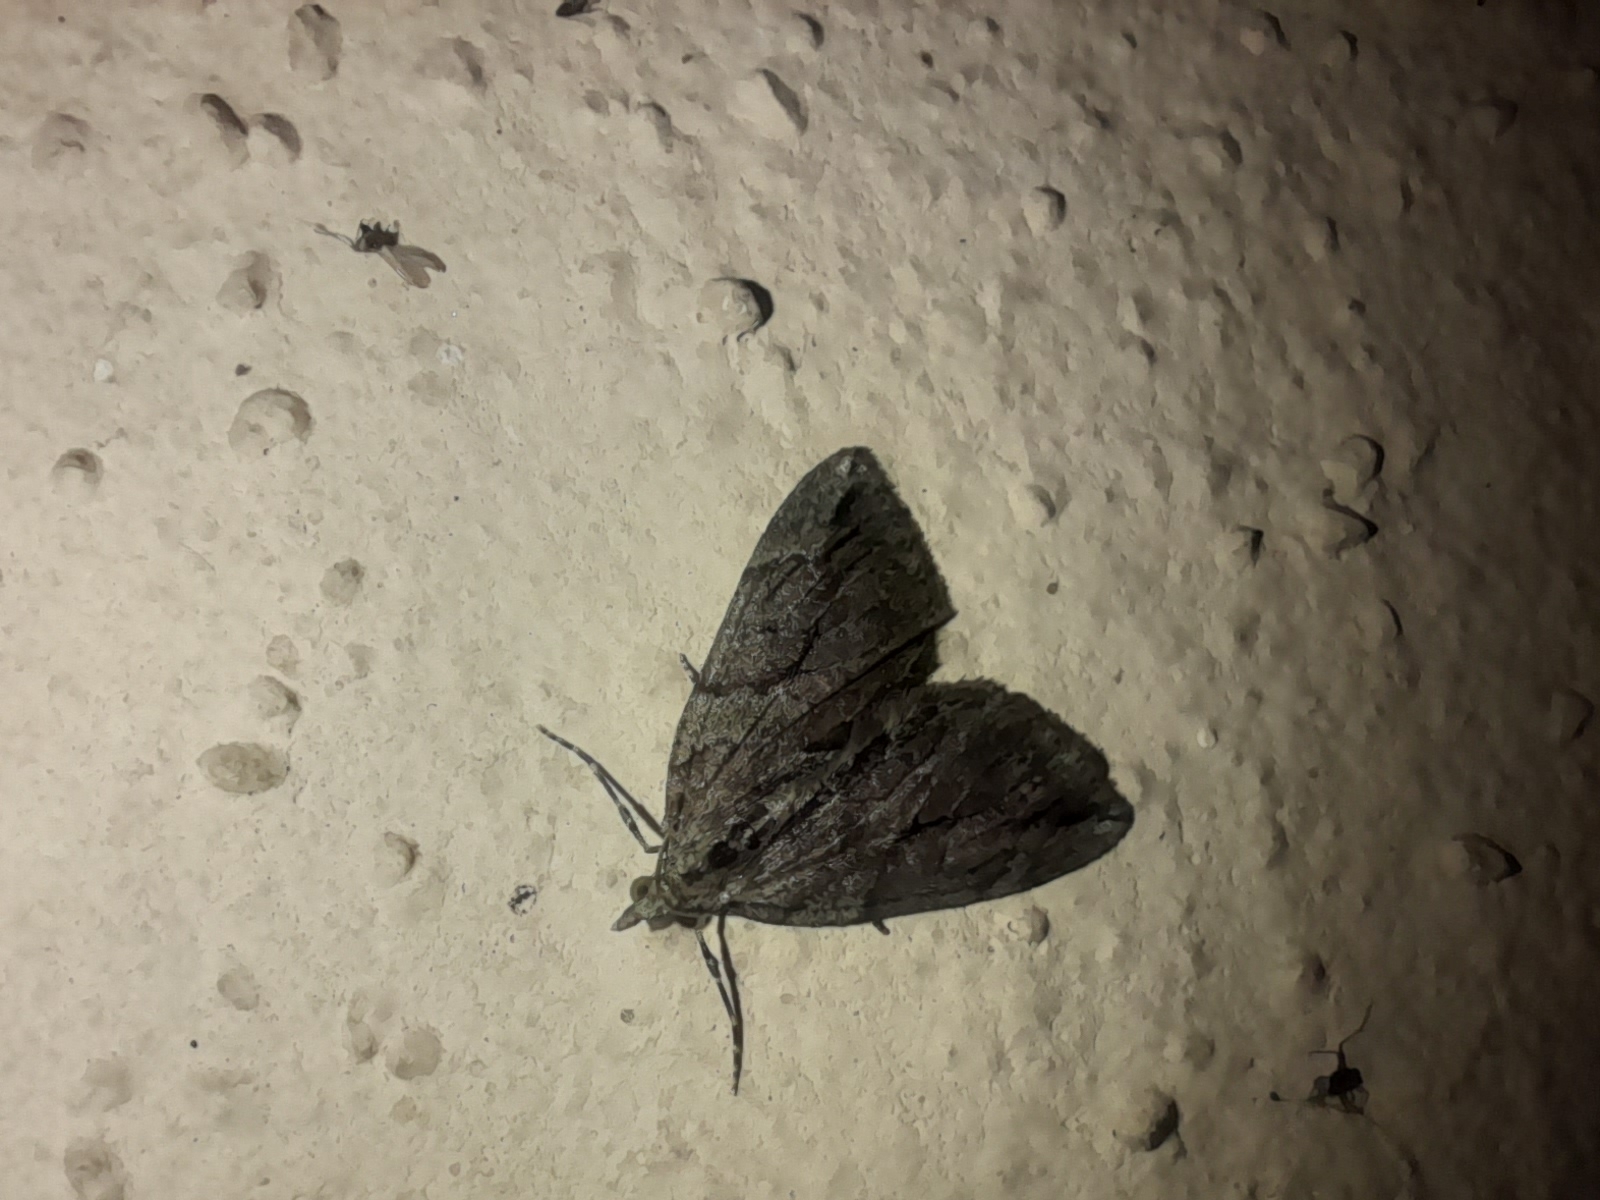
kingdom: Animalia
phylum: Arthropoda
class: Insecta
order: Lepidoptera
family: Geometridae
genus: Thera
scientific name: Thera cupressata
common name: Cypress carpet
